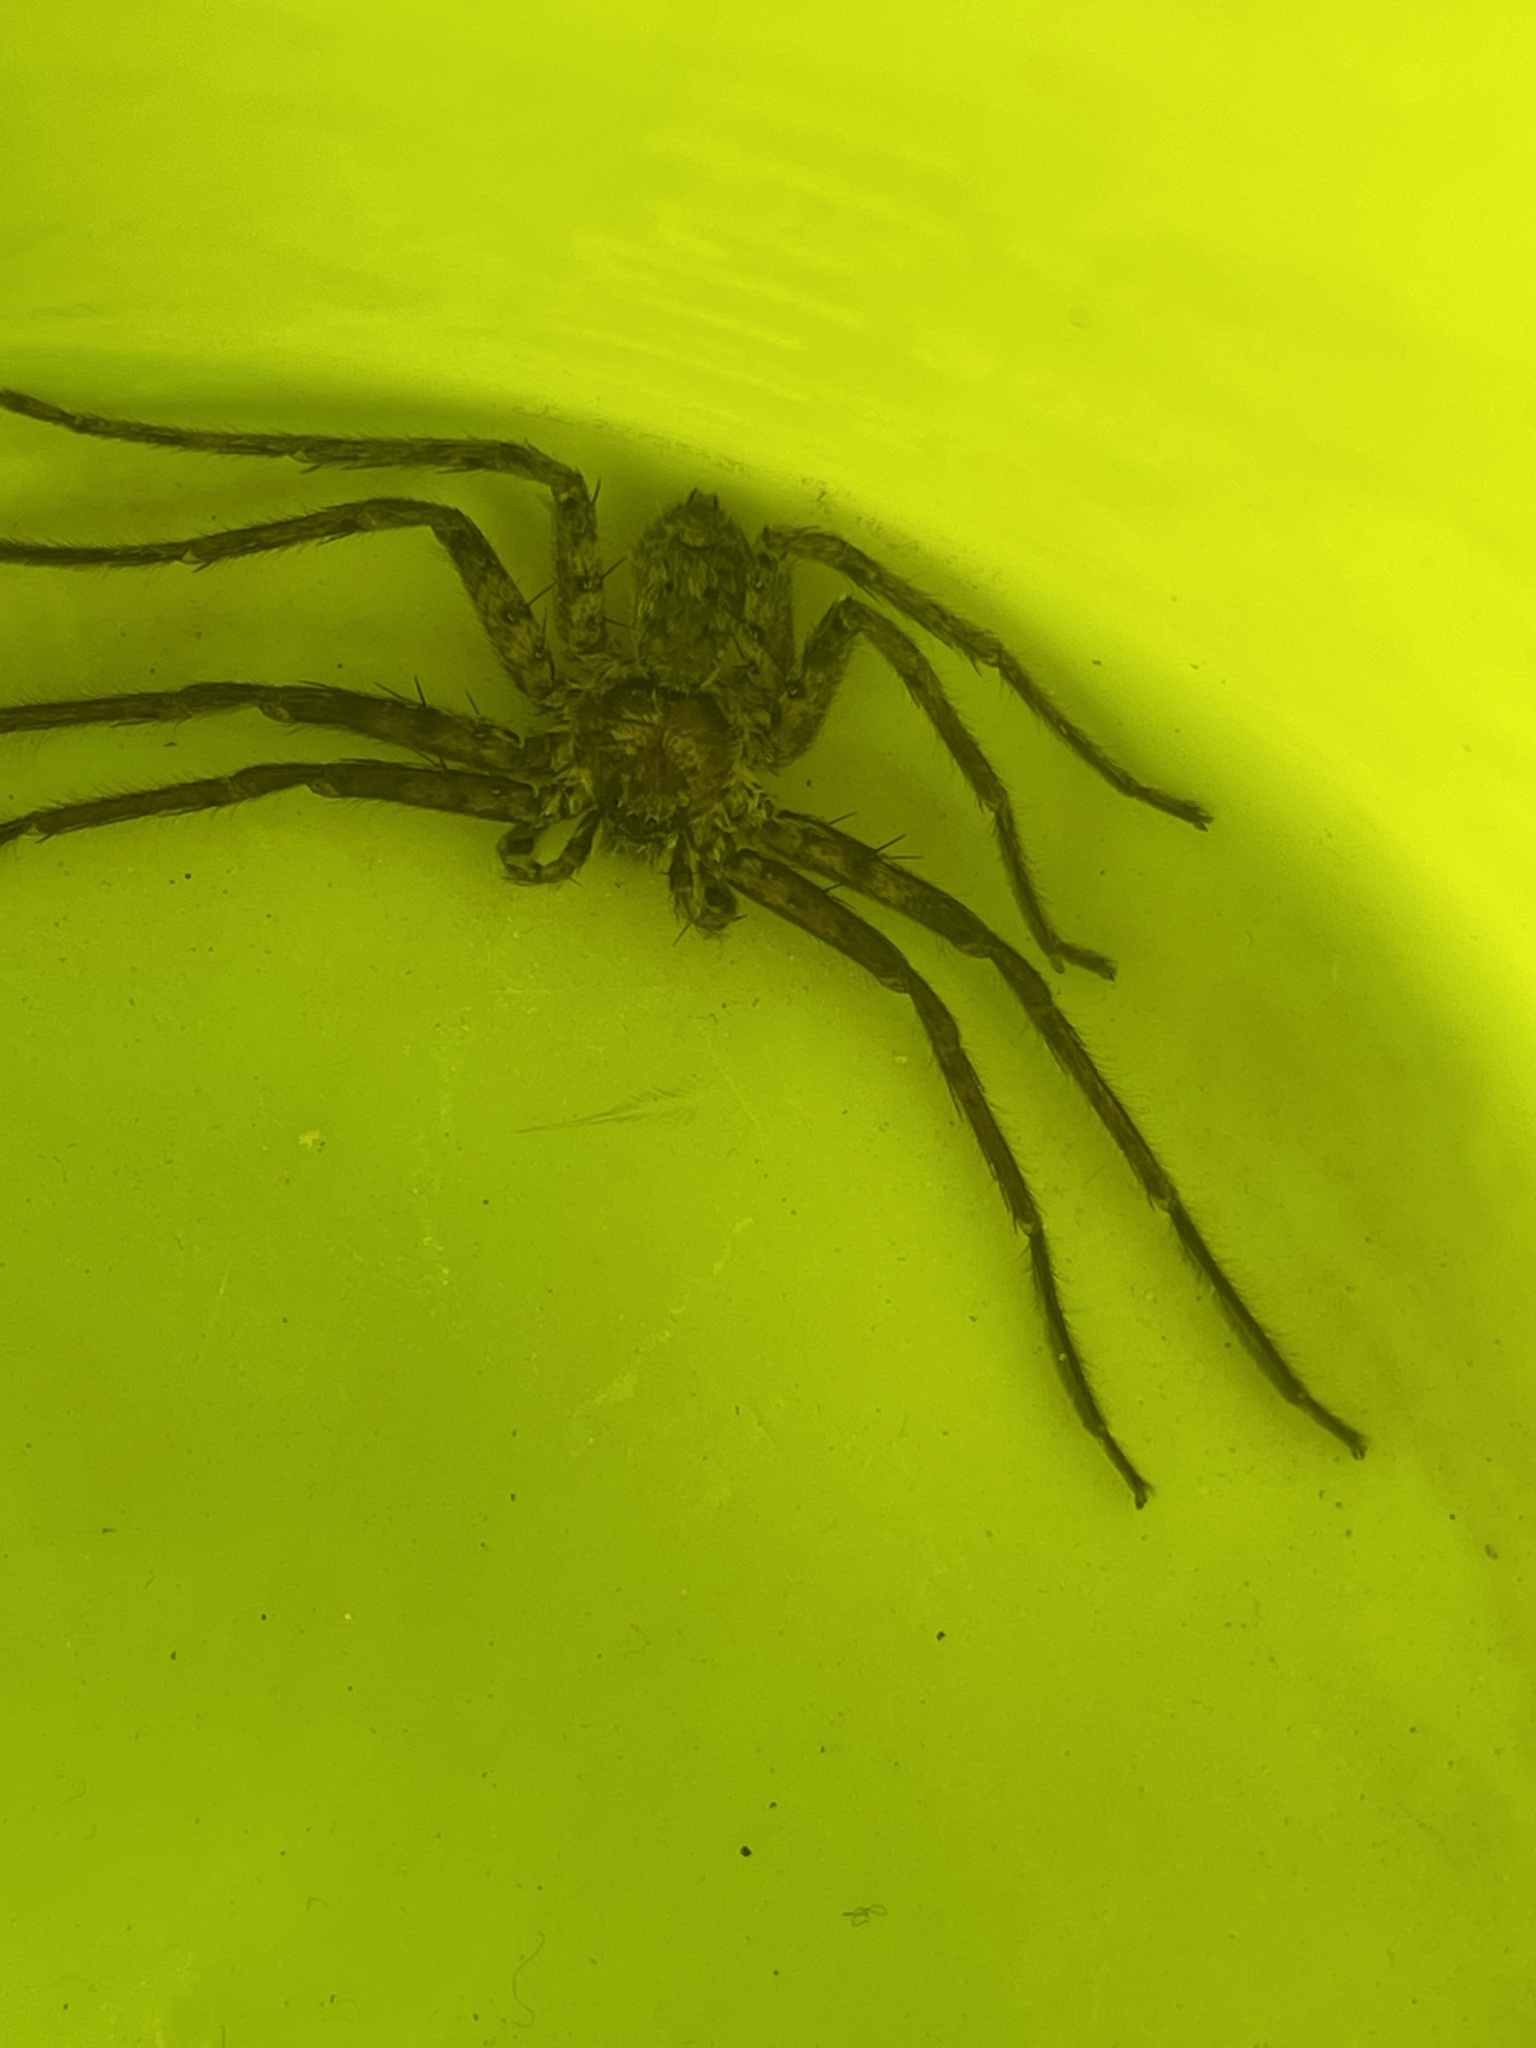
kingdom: Animalia
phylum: Arthropoda
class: Arachnida
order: Araneae
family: Sparassidae
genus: Heteropoda
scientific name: Heteropoda venatoria
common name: Huntsman spider
